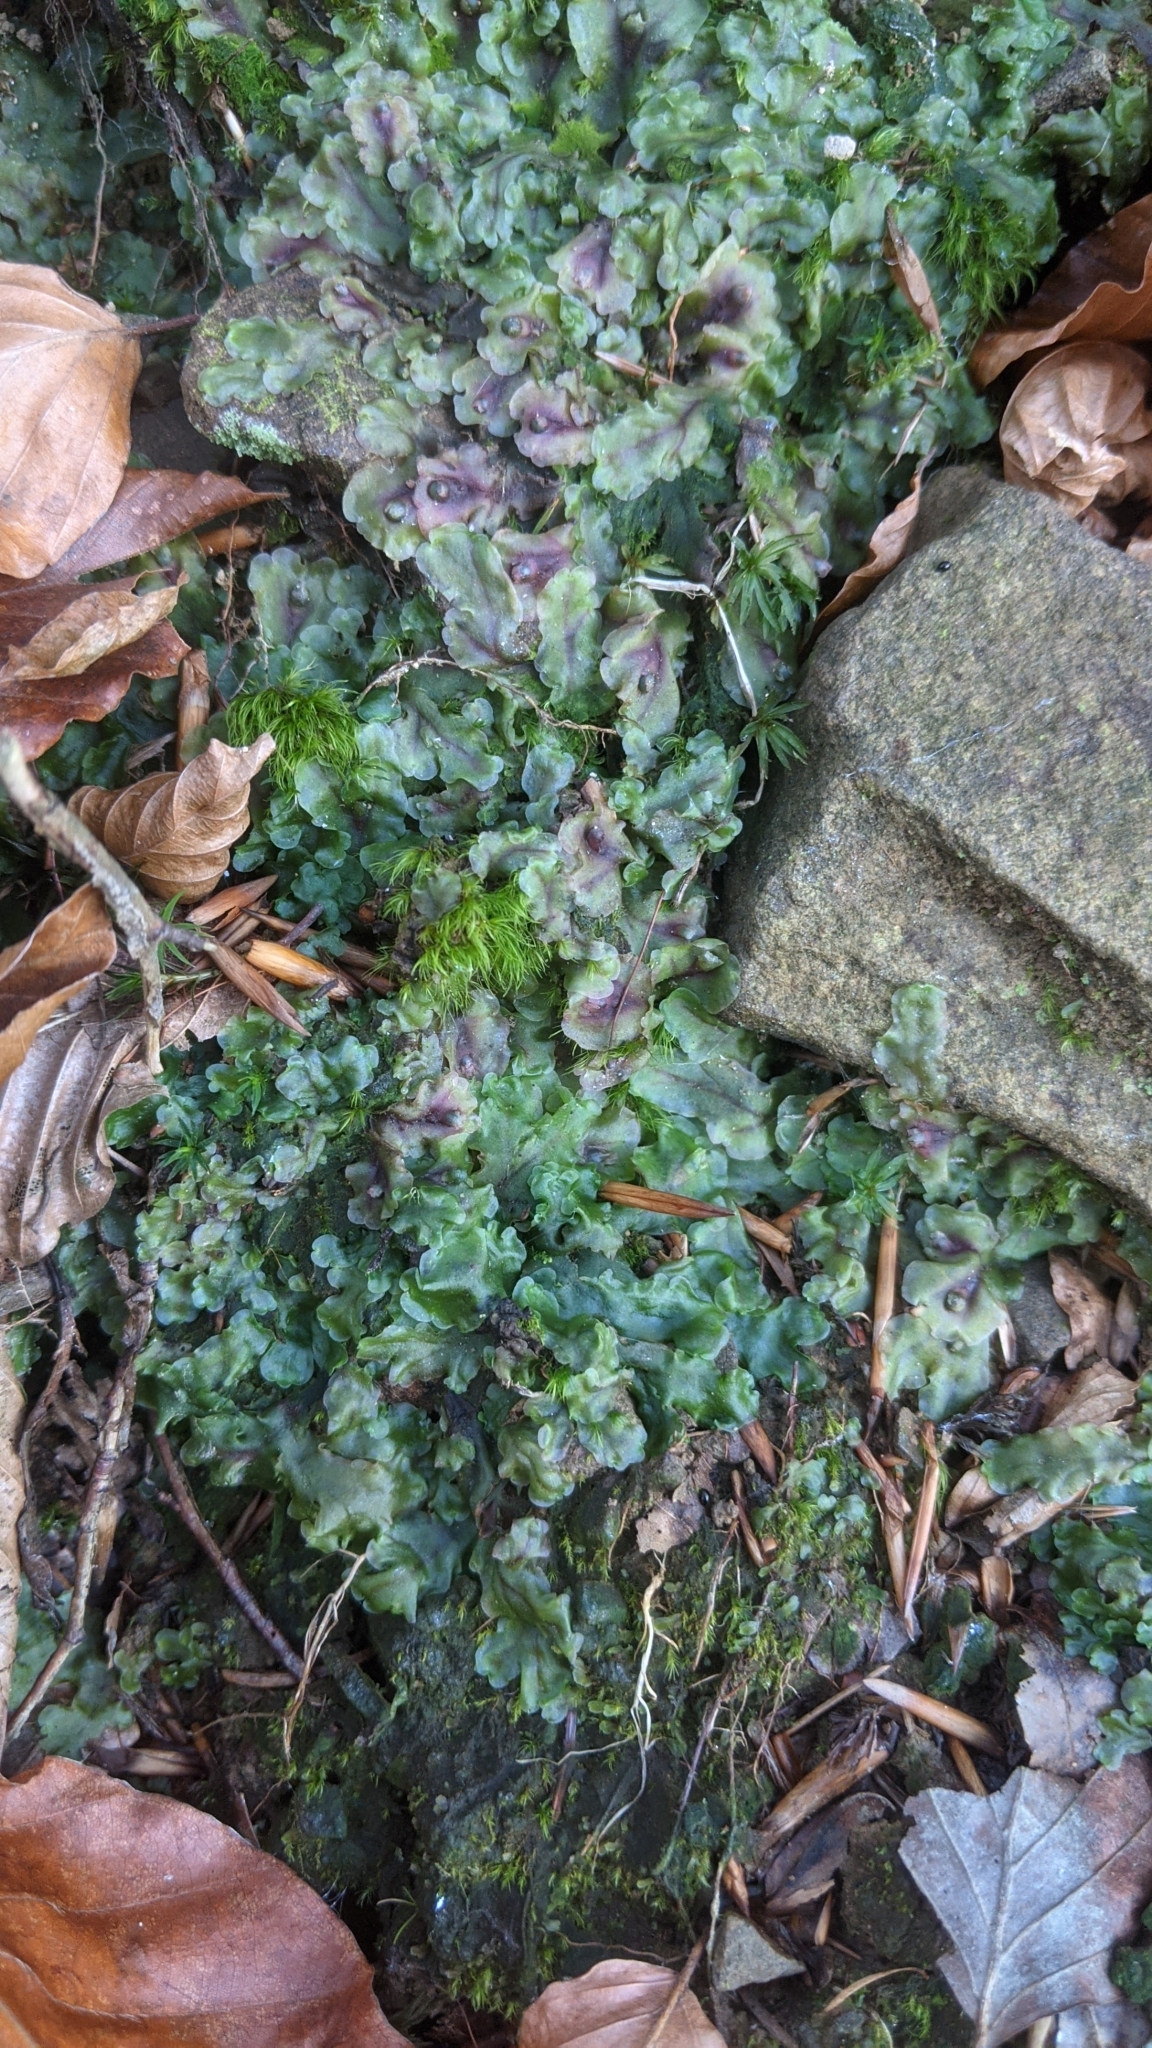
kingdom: Plantae
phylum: Marchantiophyta
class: Jungermanniopsida
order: Pelliales
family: Pelliaceae
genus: Pellia
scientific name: Pellia epiphylla
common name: Common pellia
